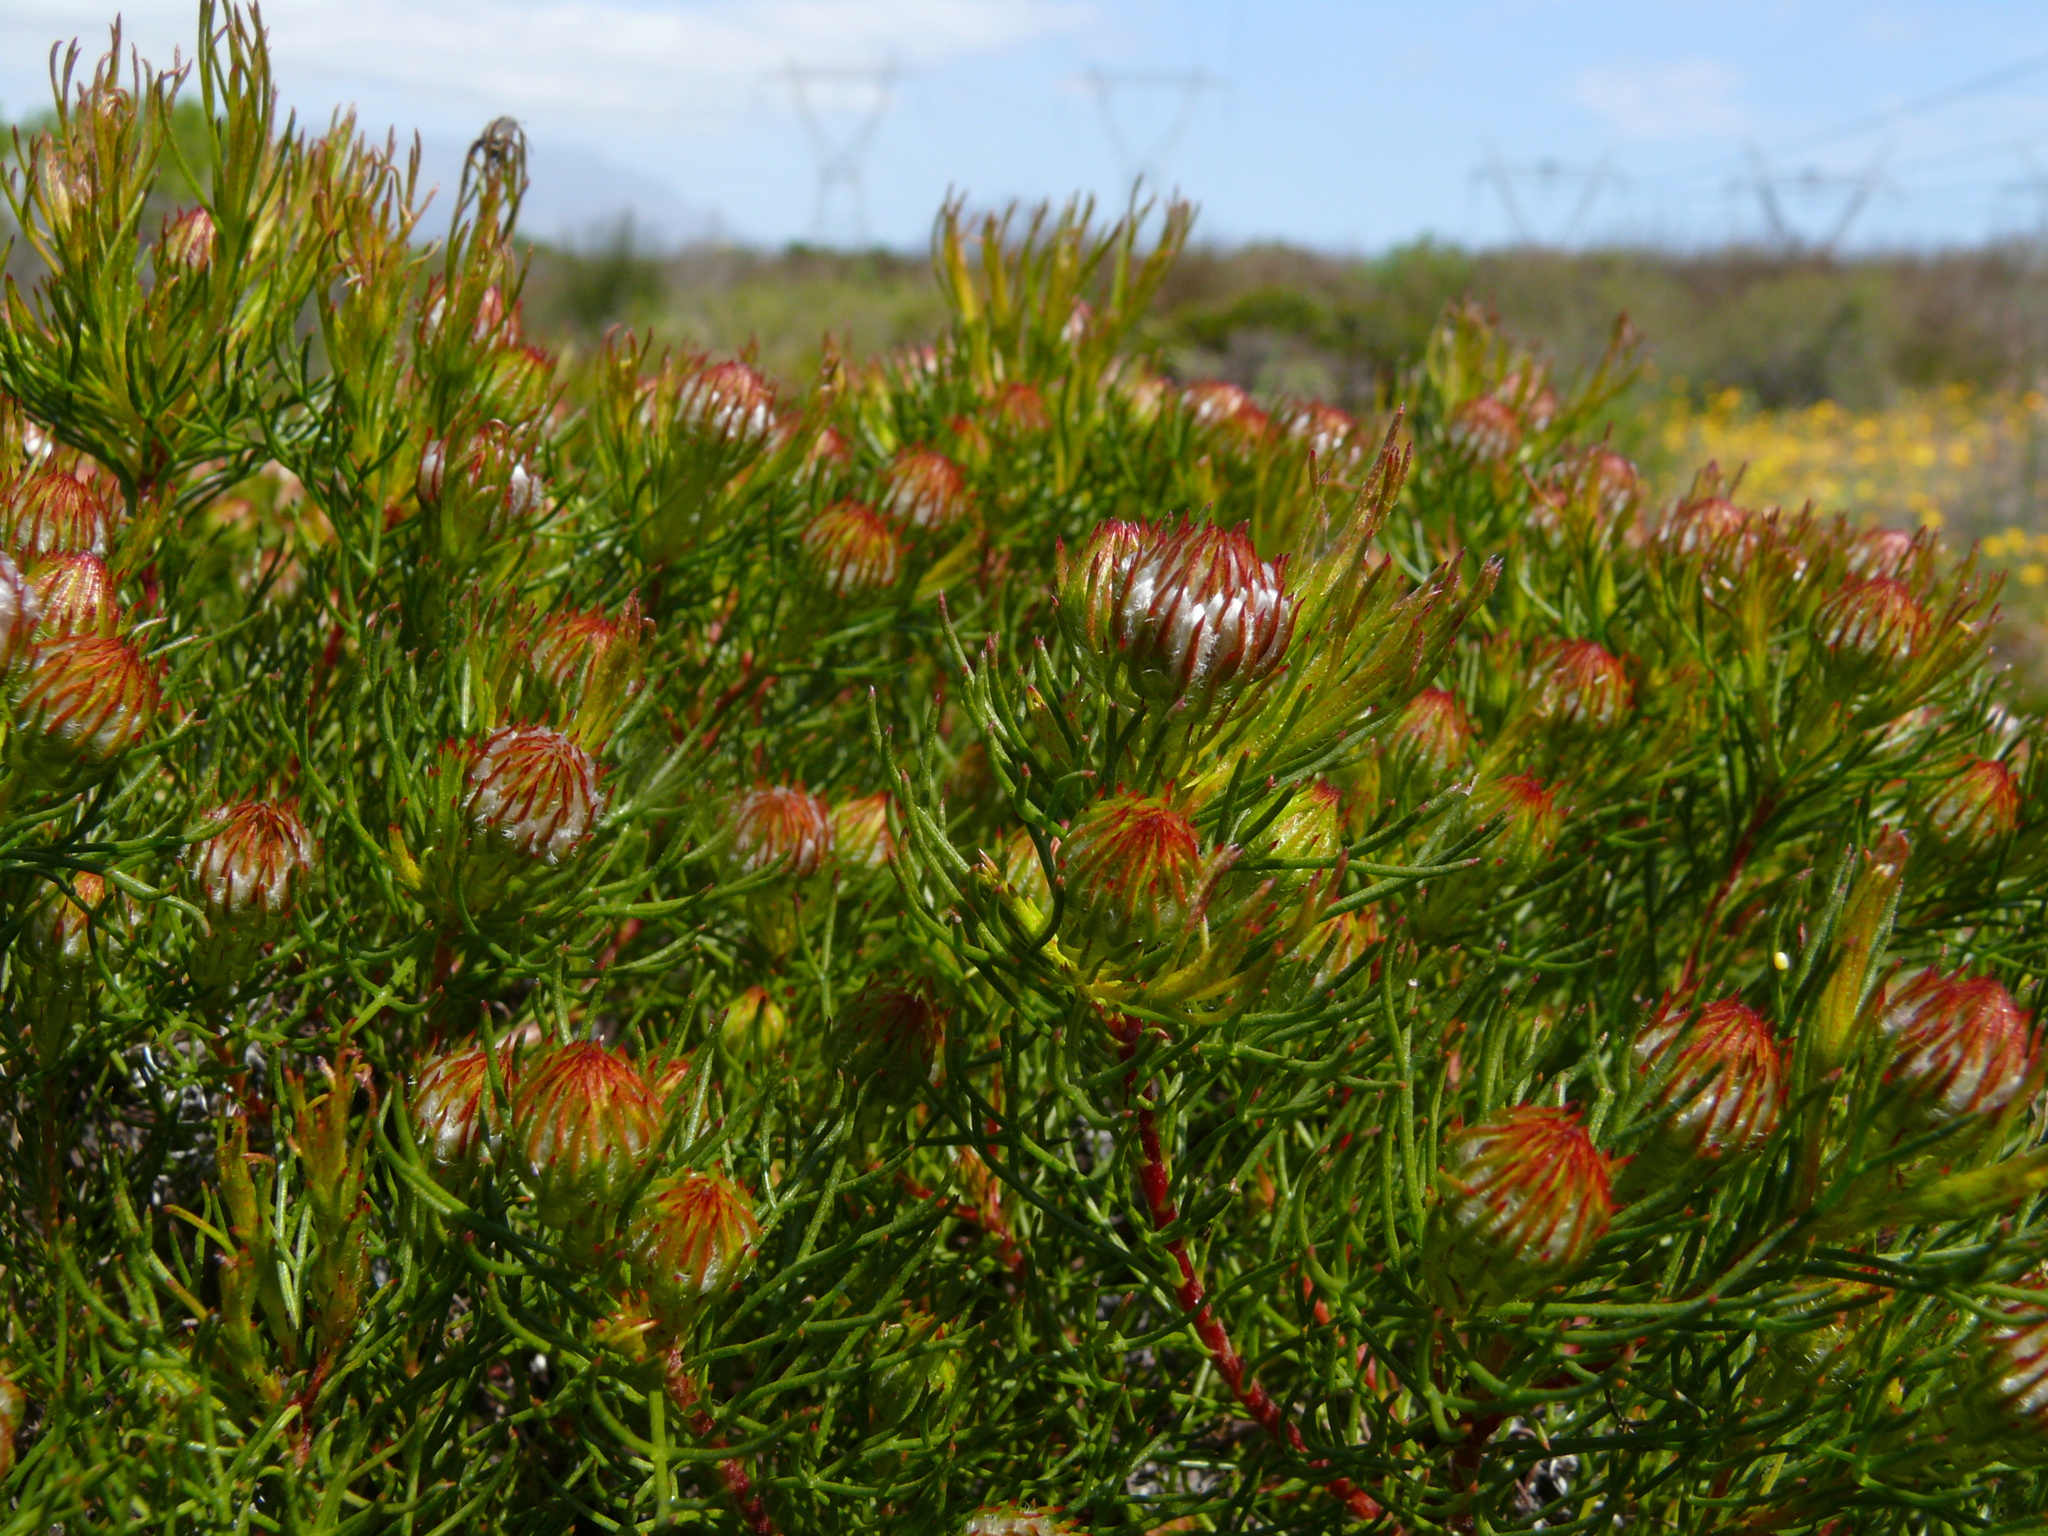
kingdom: Plantae
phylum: Tracheophyta
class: Magnoliopsida
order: Proteales
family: Proteaceae
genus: Serruria
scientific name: Serruria aemula
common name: Strawberry spiderhead
